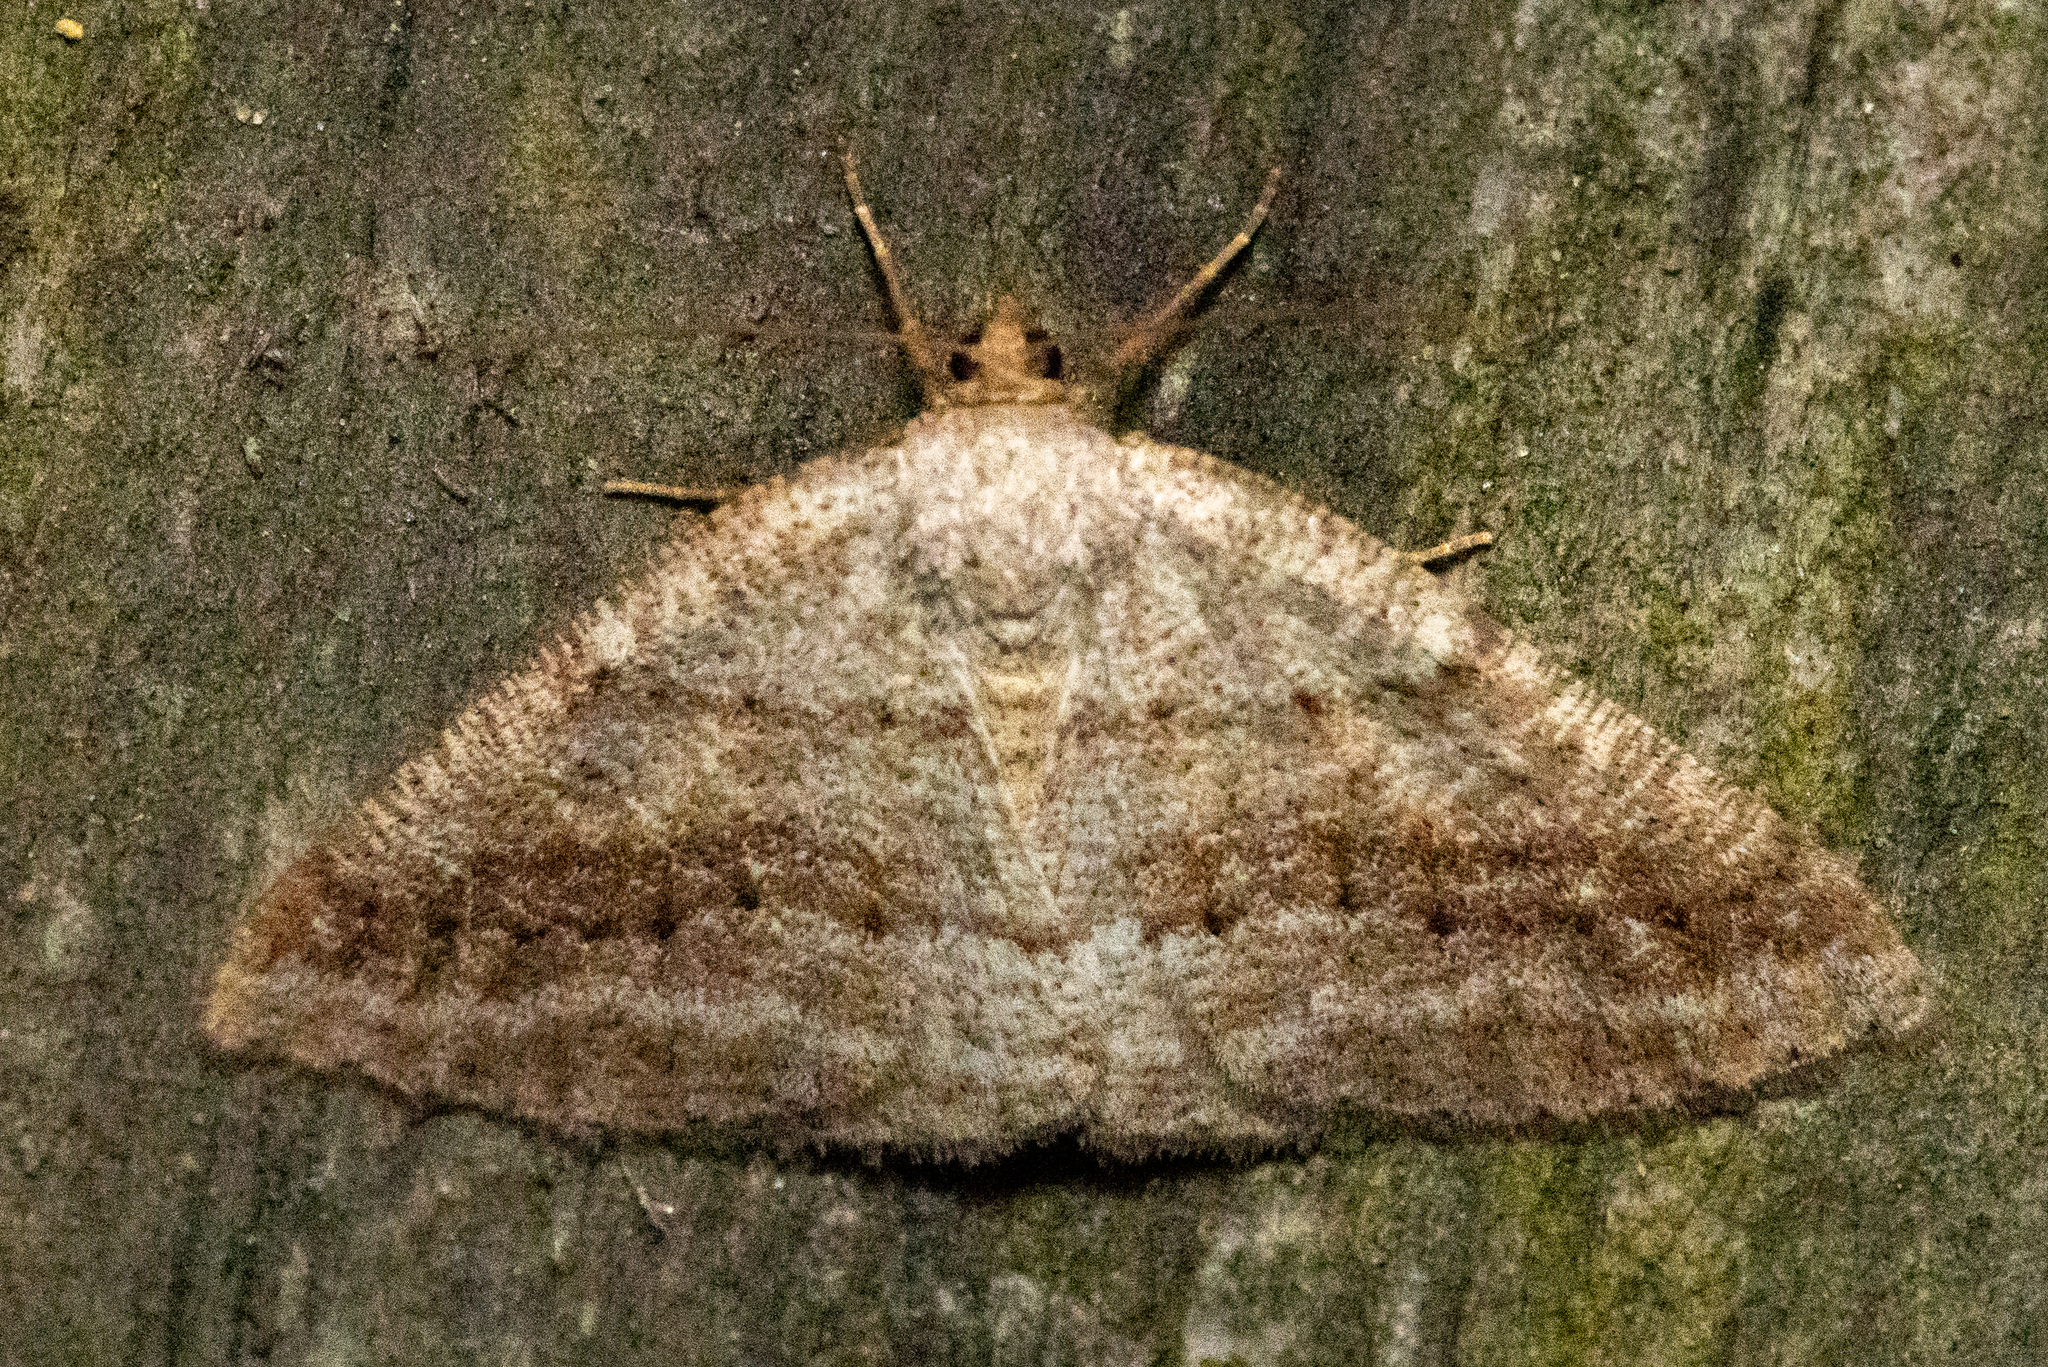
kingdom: Animalia
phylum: Arthropoda
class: Insecta
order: Lepidoptera
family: Geometridae
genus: Tacparia
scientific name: Tacparia detersata
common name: Pale alder moth
